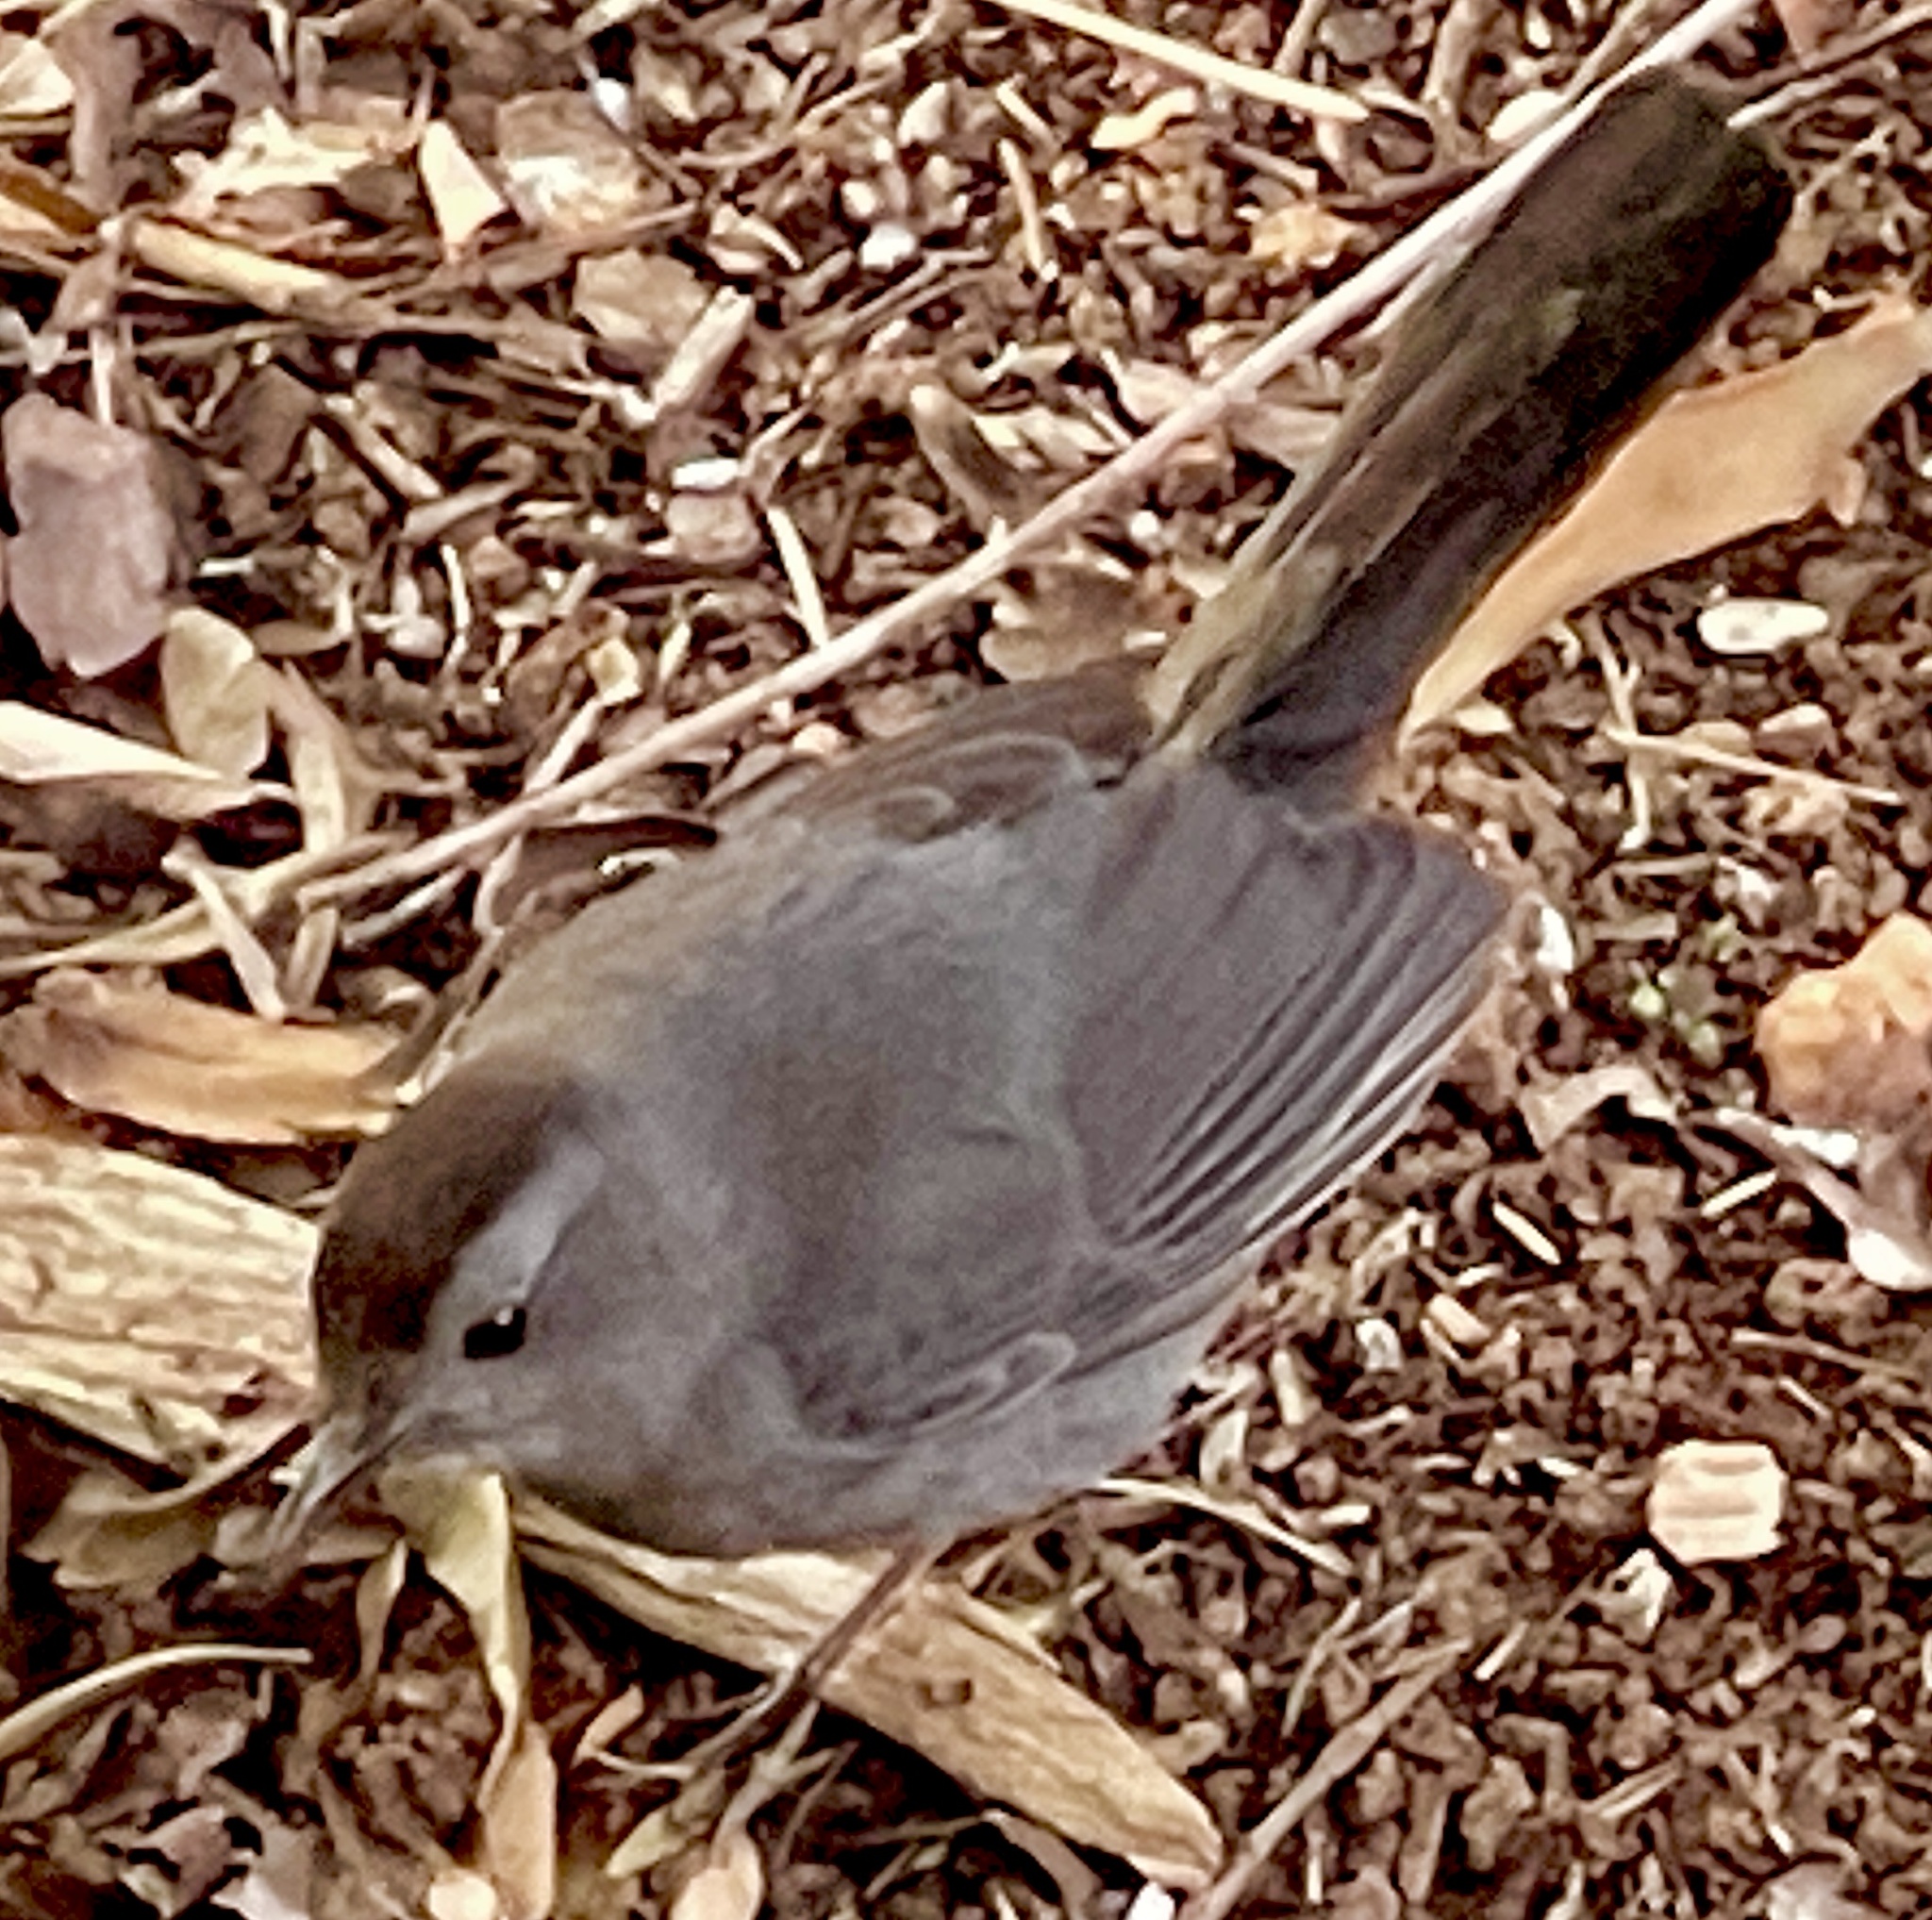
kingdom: Animalia
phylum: Chordata
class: Aves
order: Passeriformes
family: Mimidae
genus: Dumetella
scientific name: Dumetella carolinensis
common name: Gray catbird
